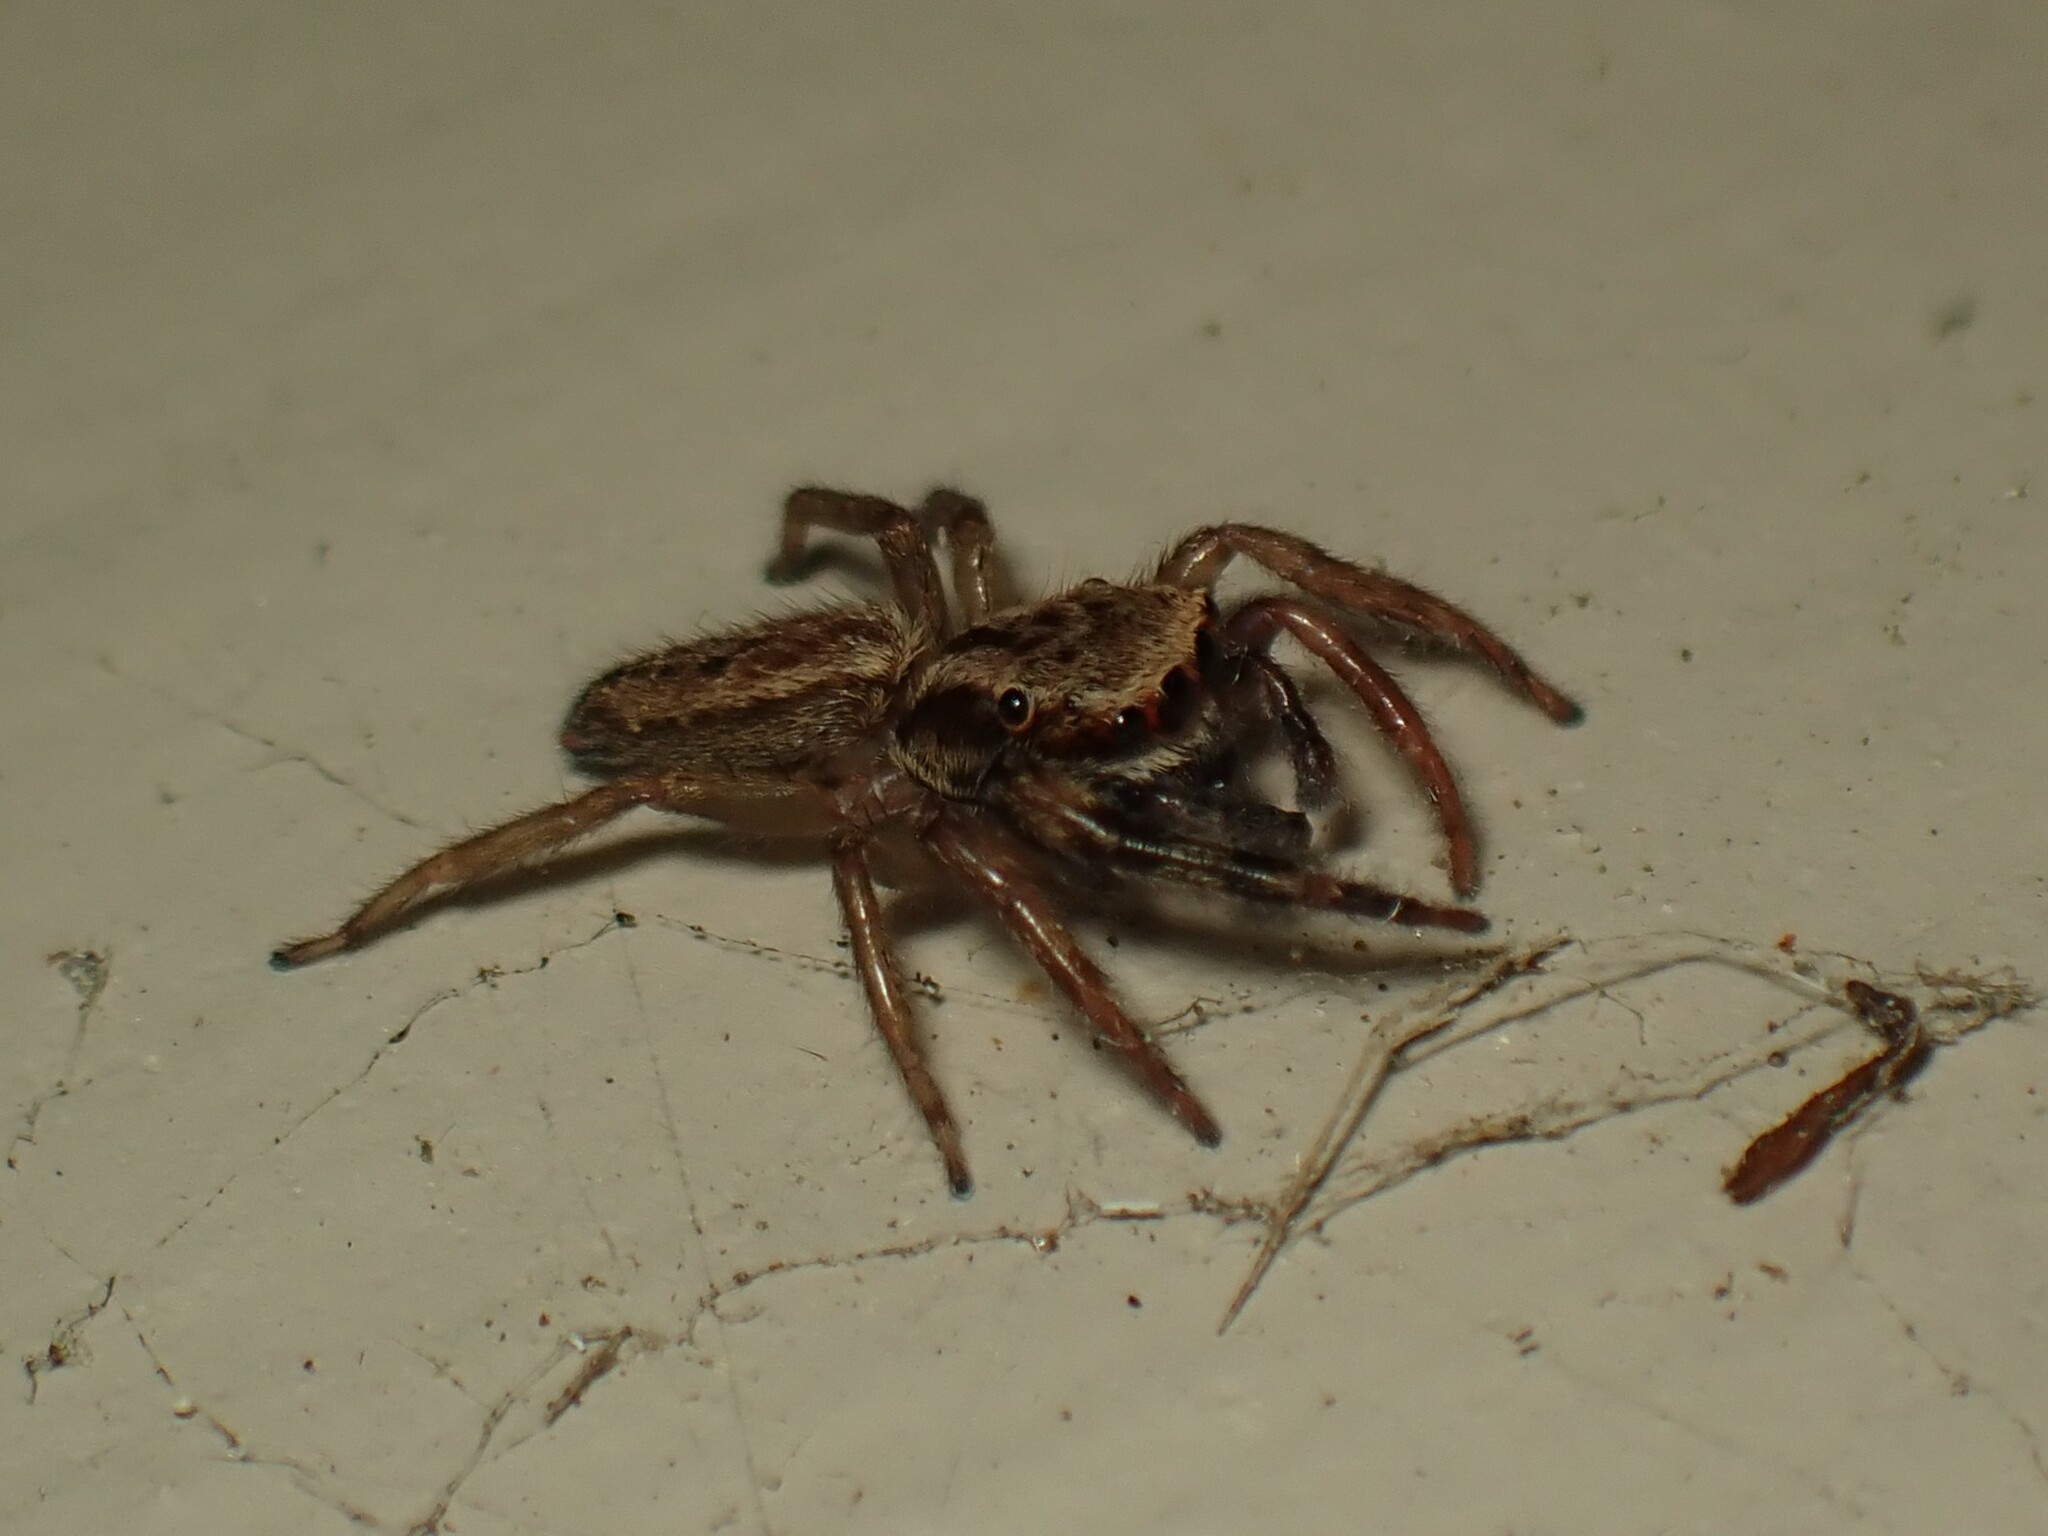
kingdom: Animalia
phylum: Arthropoda
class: Arachnida
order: Araneae
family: Salticidae
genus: Trite
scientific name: Trite auricoma
